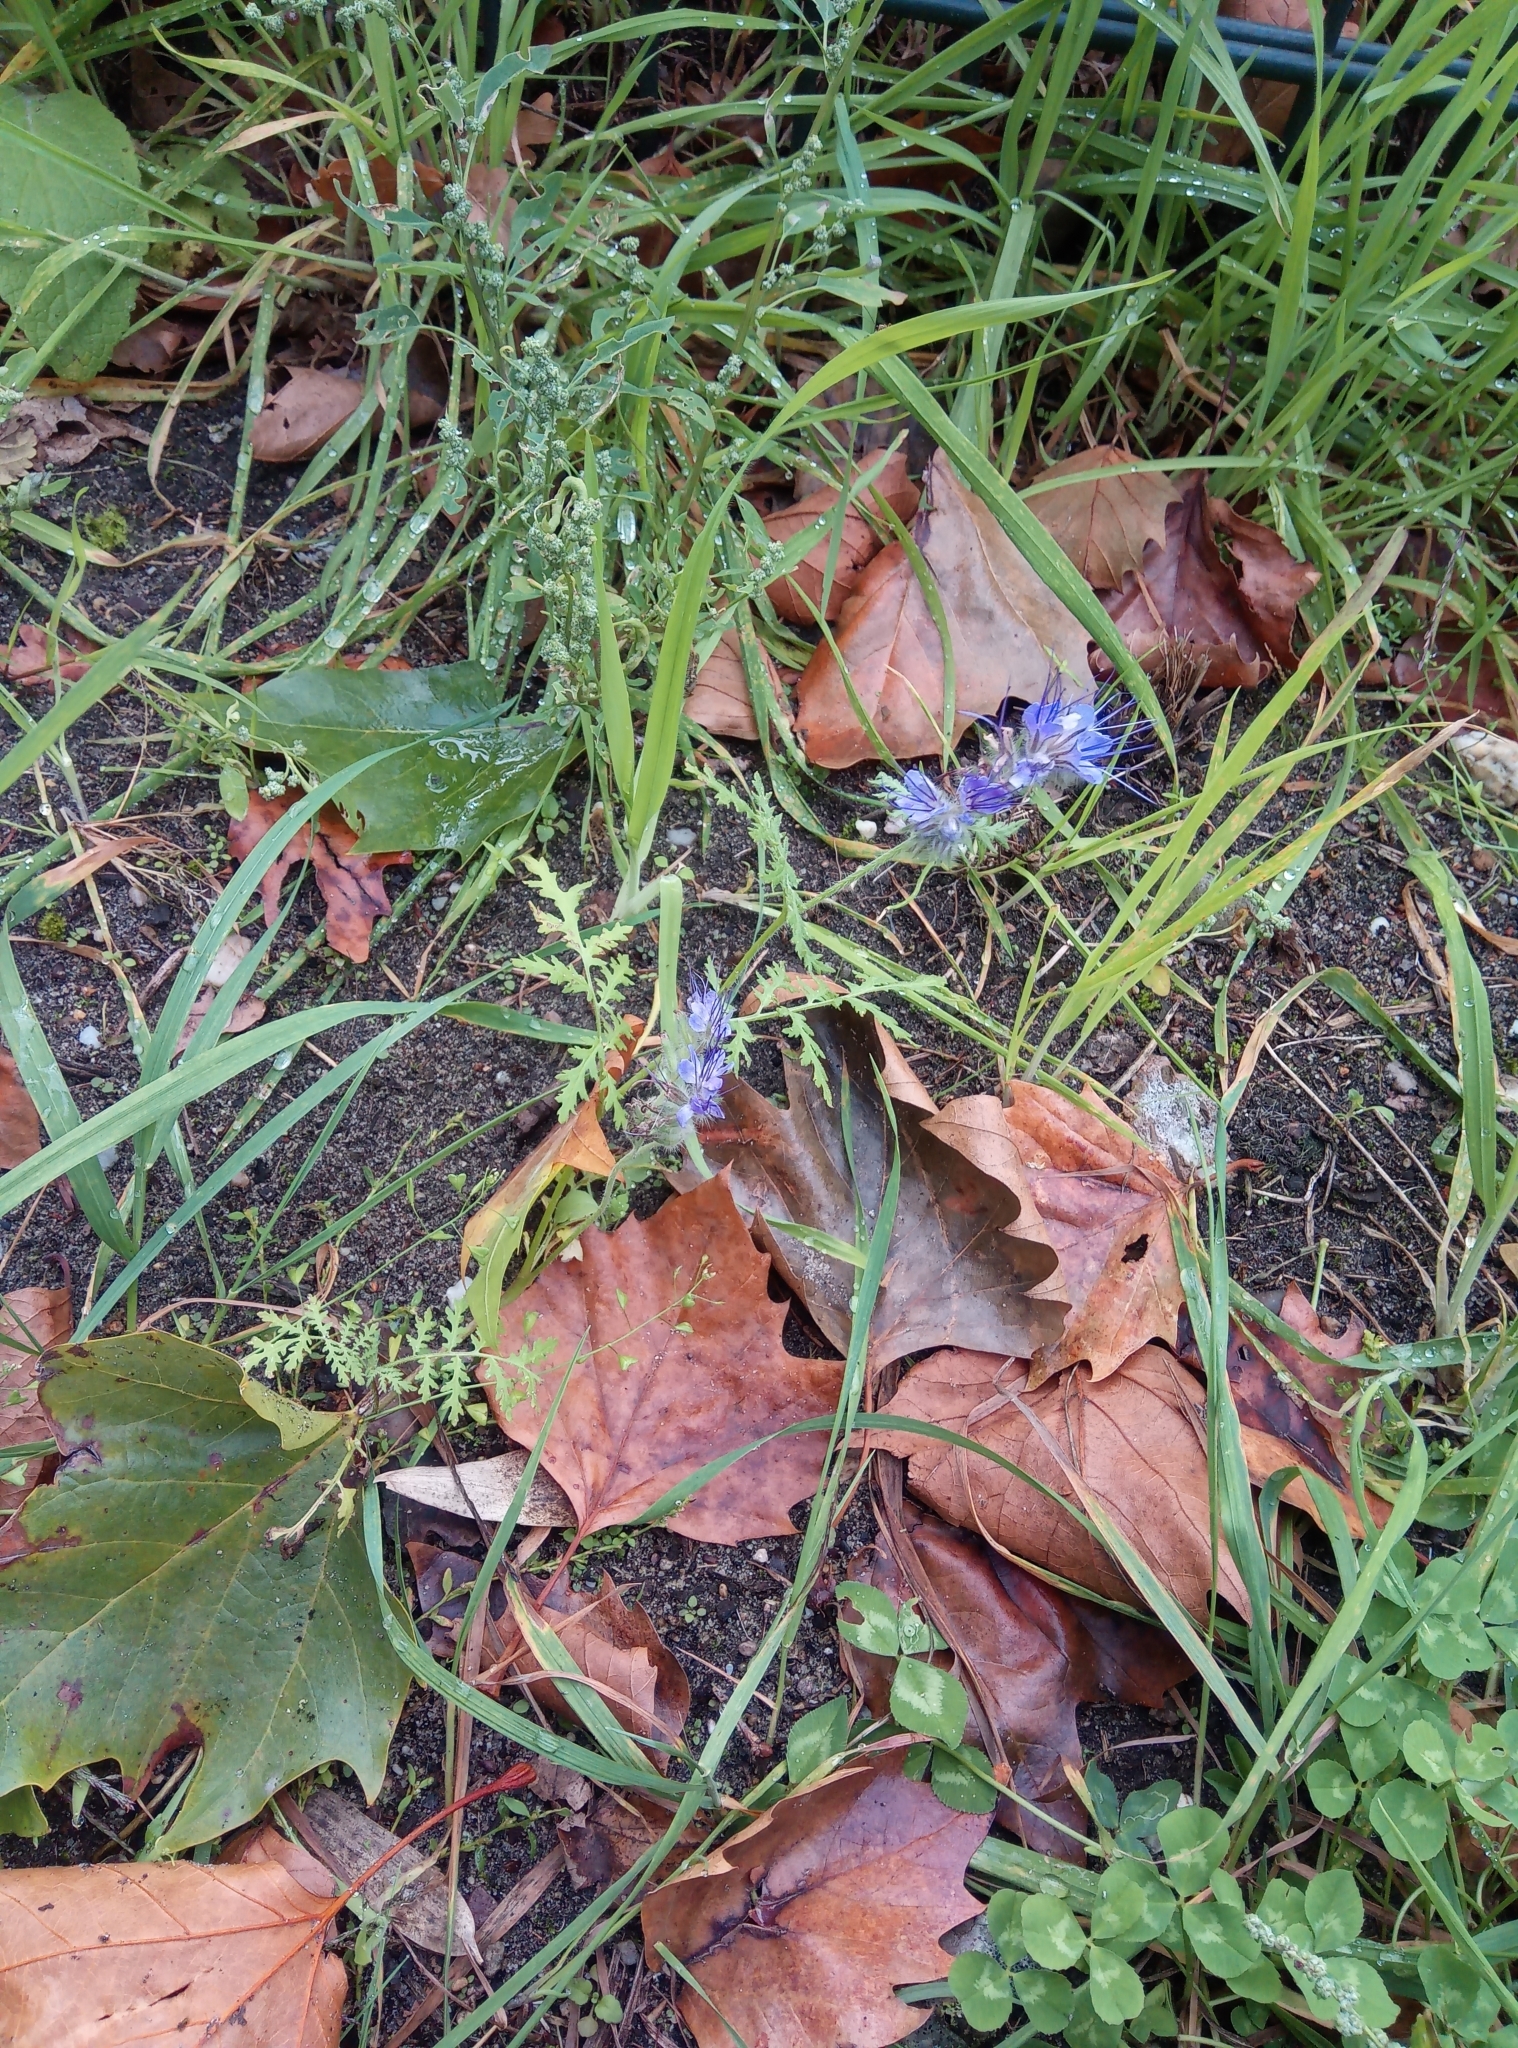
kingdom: Plantae
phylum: Tracheophyta
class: Magnoliopsida
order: Boraginales
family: Hydrophyllaceae
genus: Phacelia
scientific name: Phacelia tanacetifolia
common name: Phacelia
